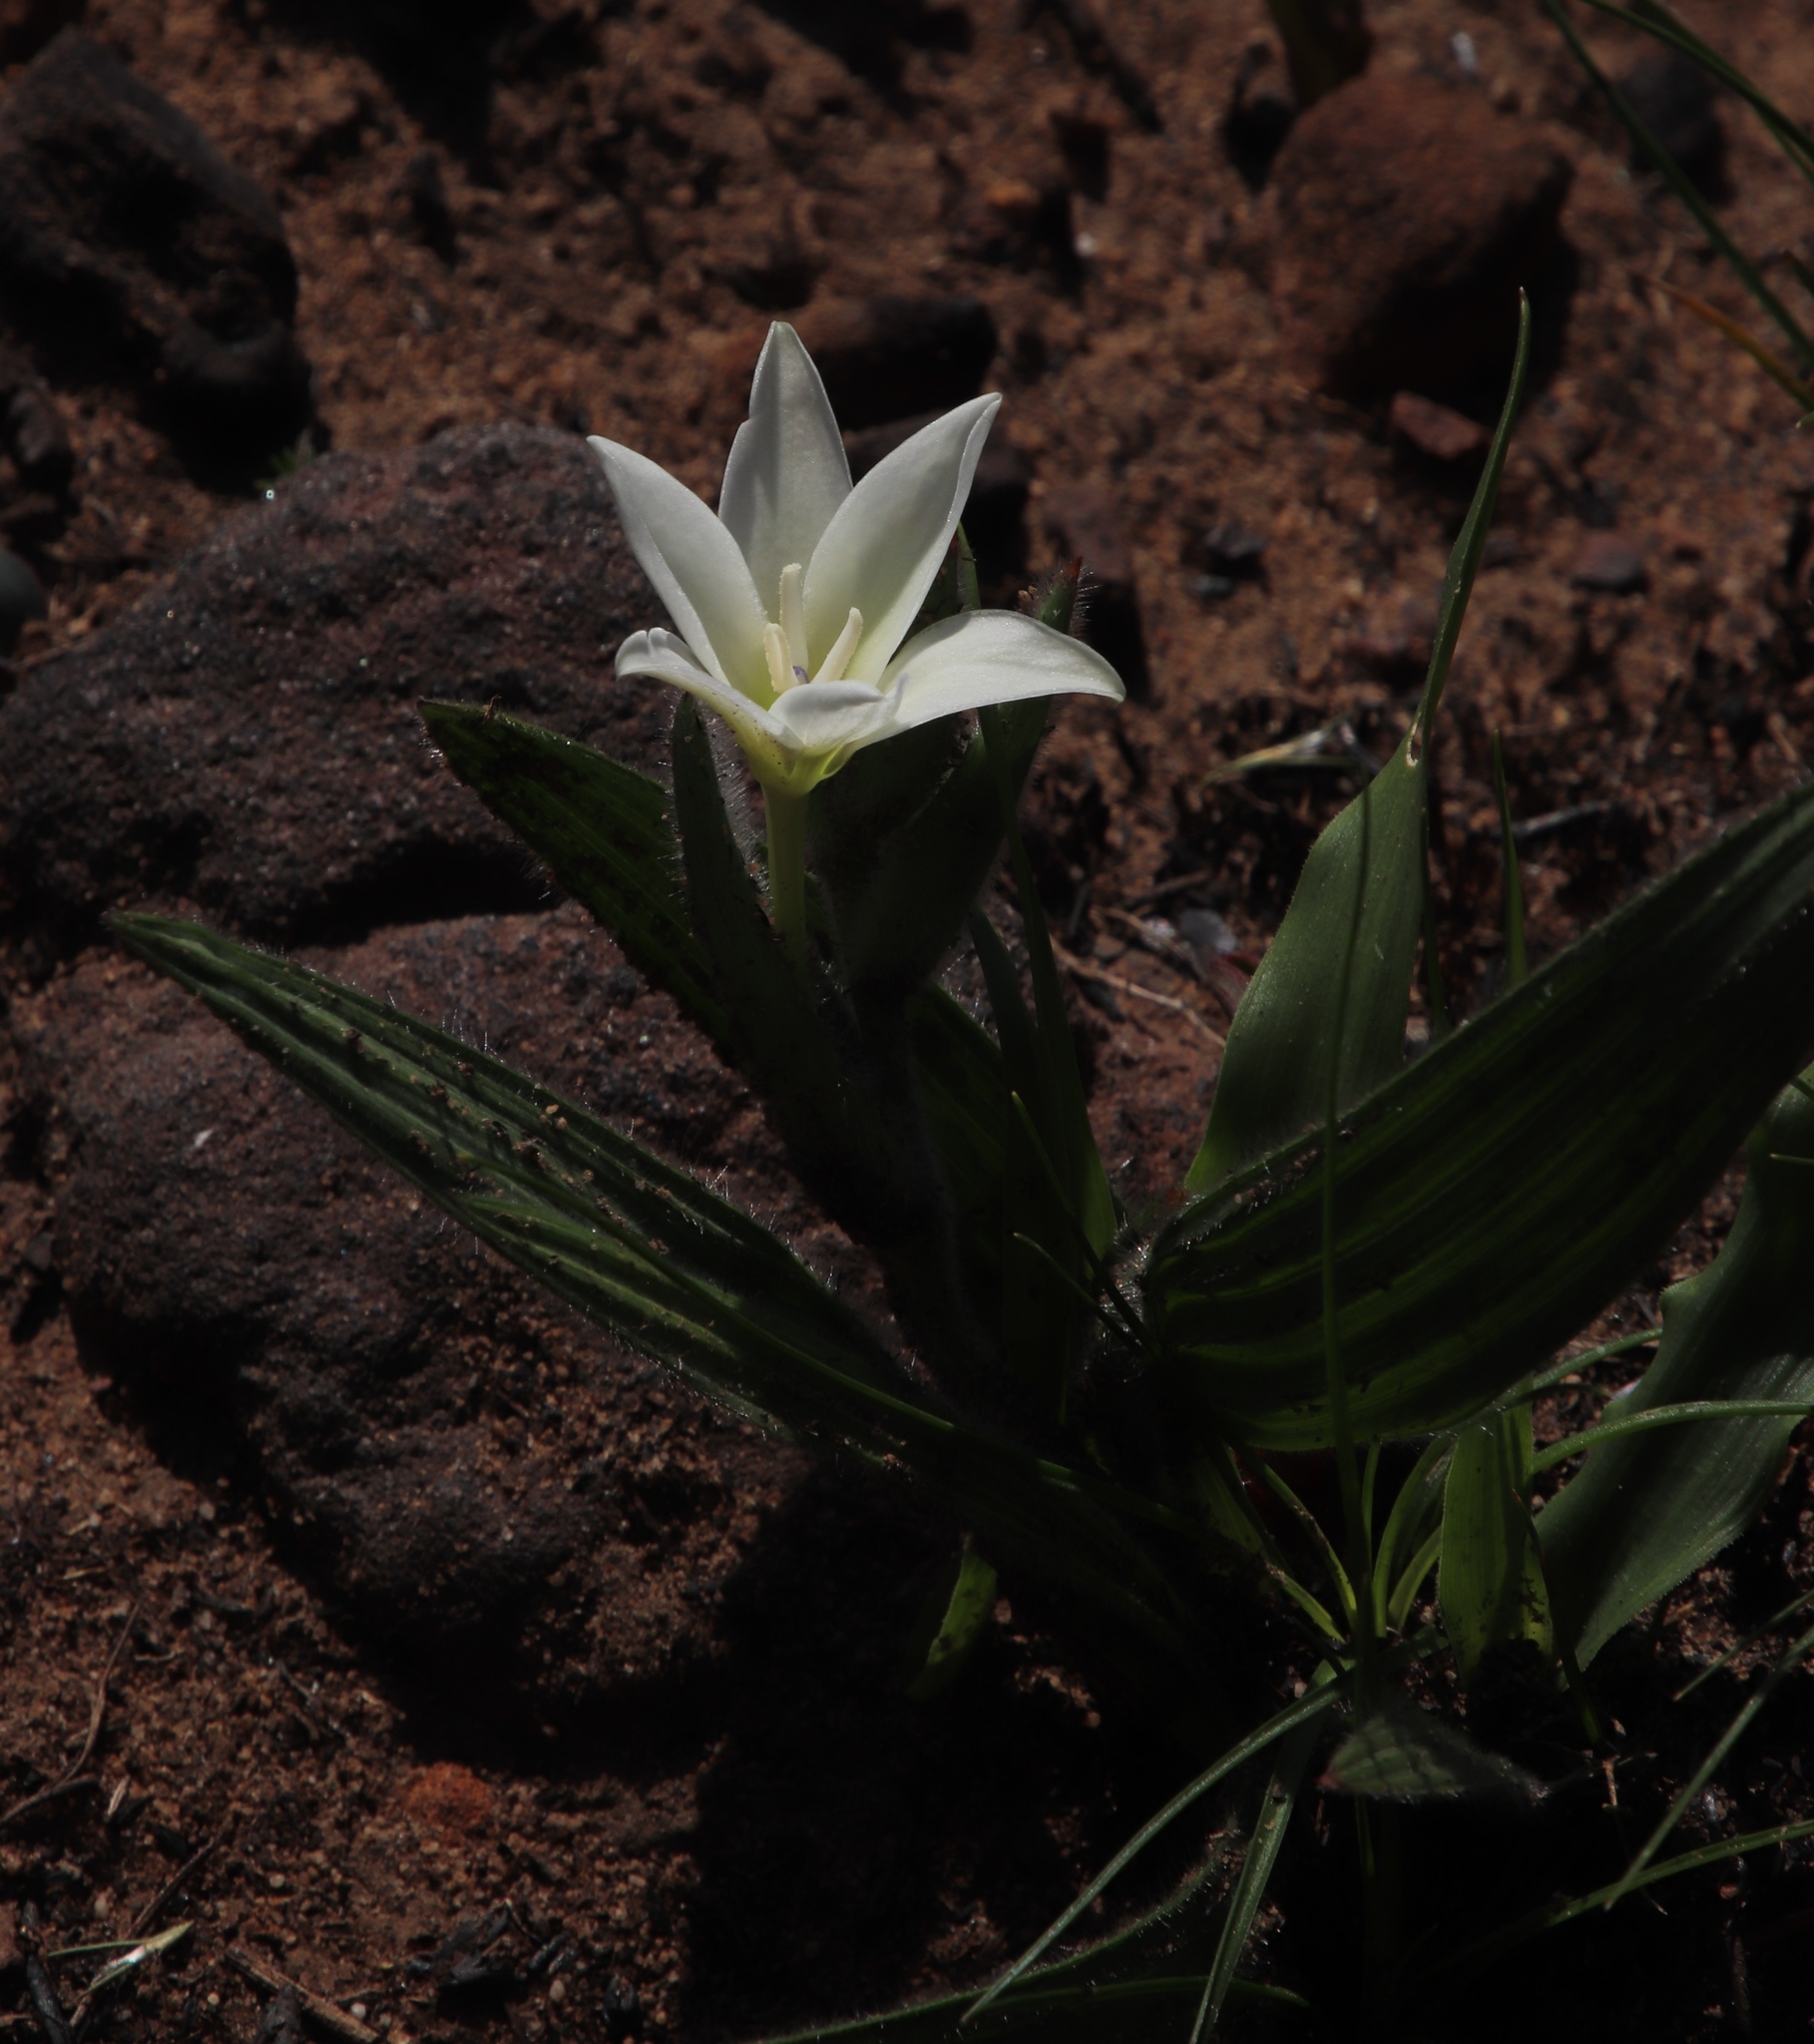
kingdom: Plantae
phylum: Tracheophyta
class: Liliopsida
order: Asparagales
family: Iridaceae
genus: Babiana
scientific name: Babiana villosula
